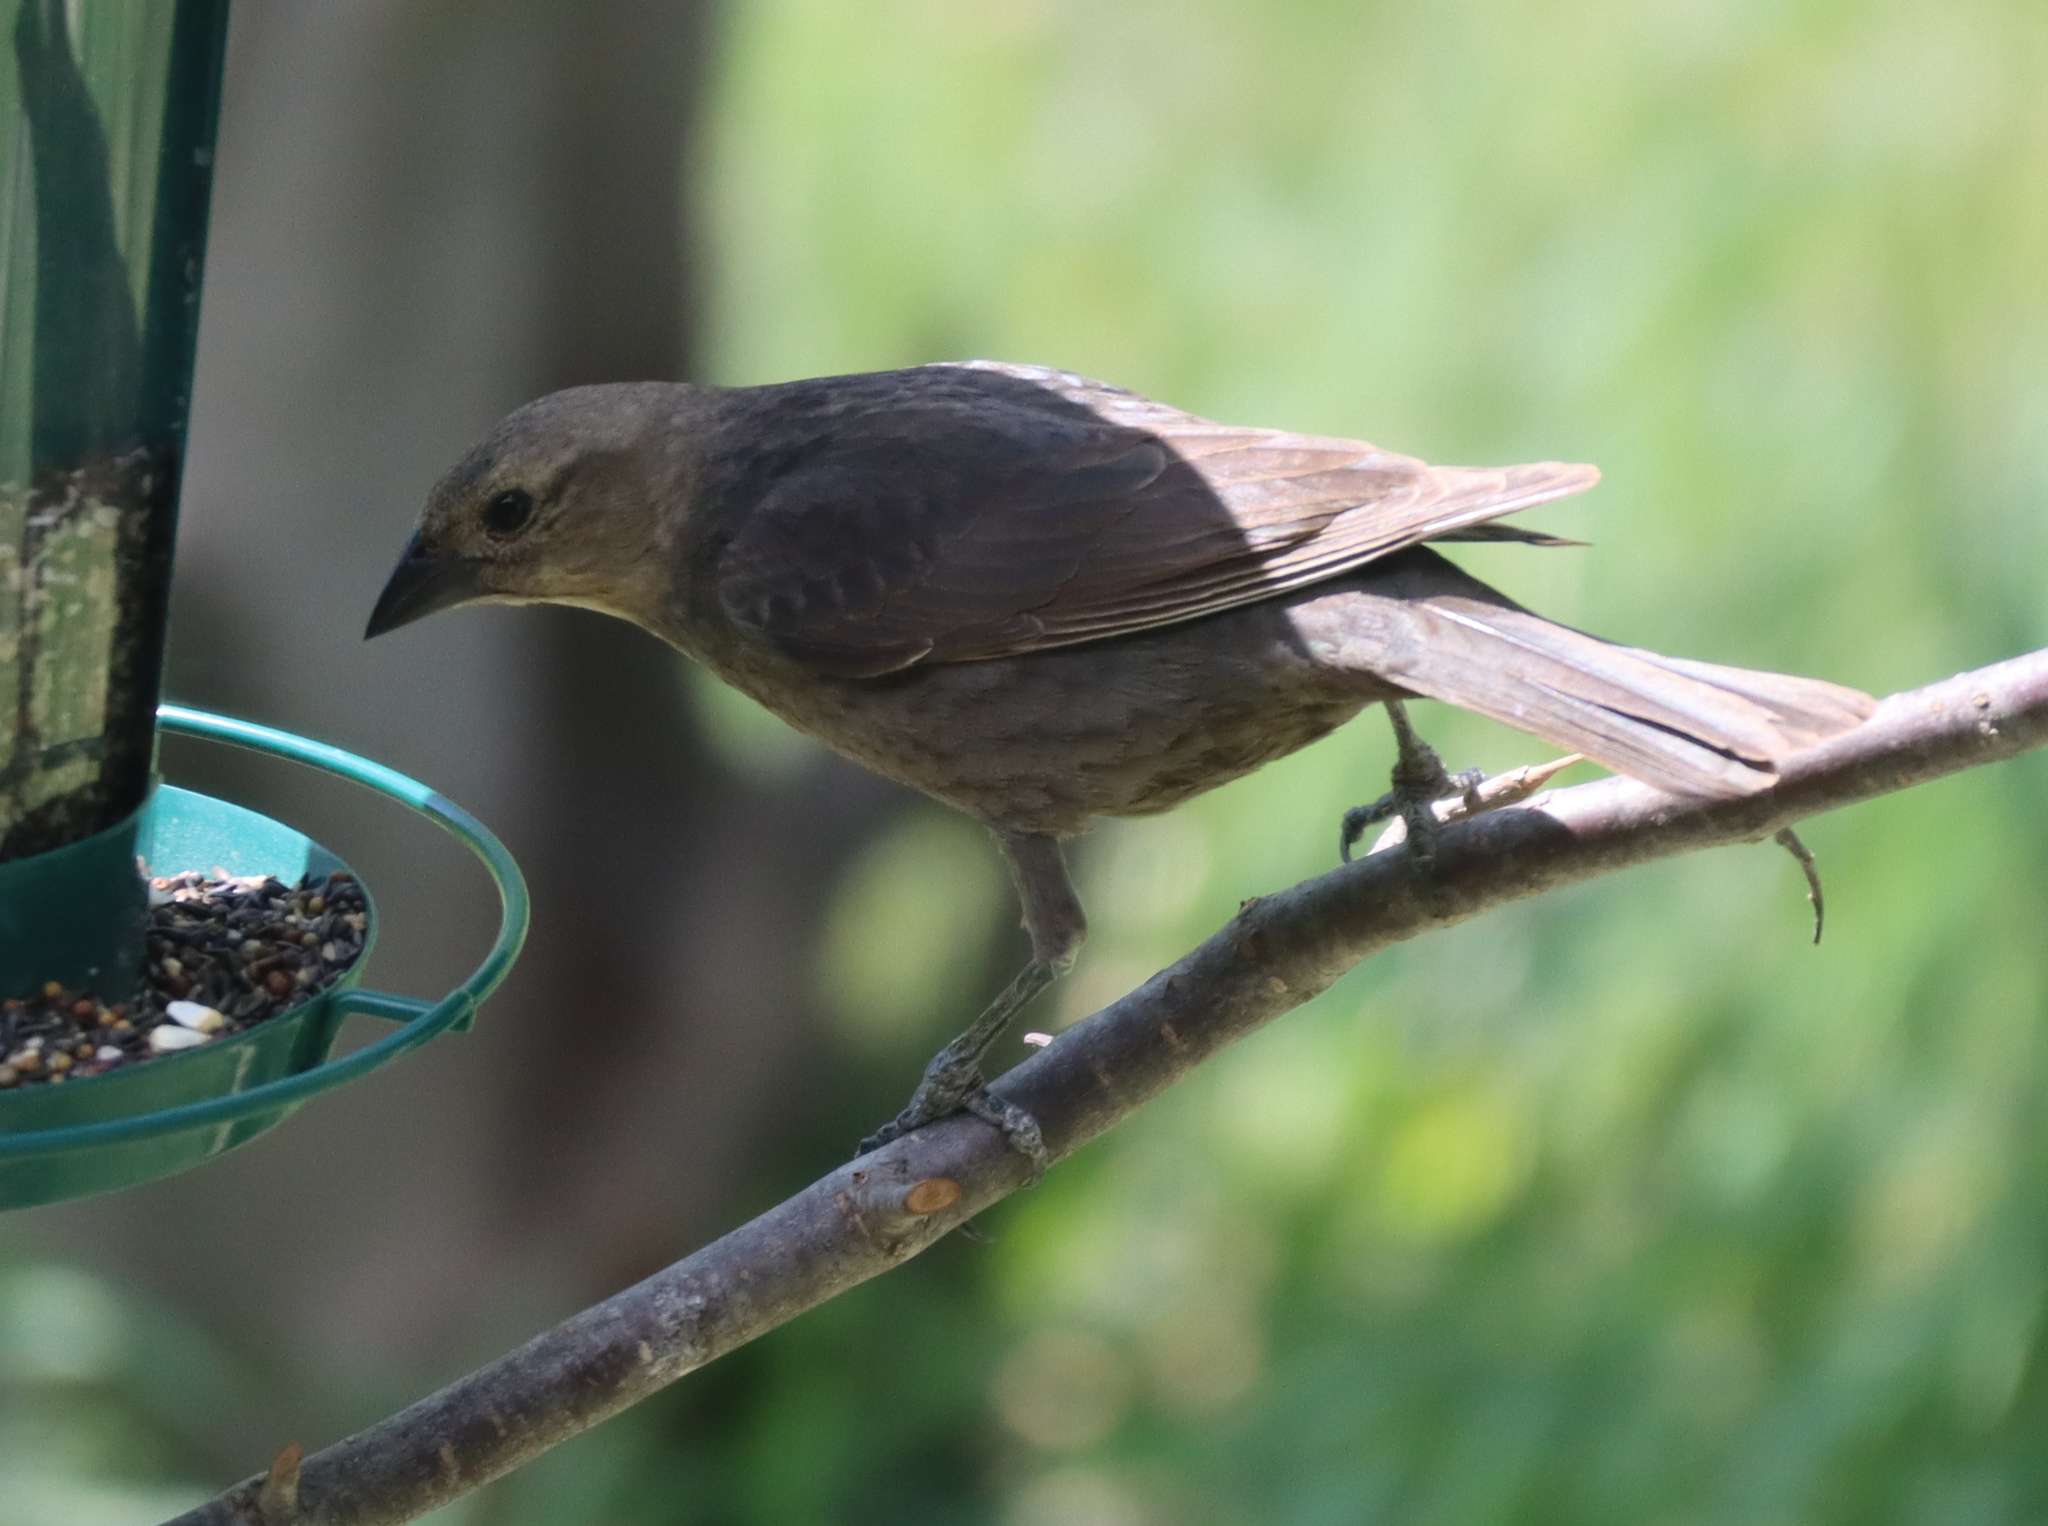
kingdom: Animalia
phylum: Chordata
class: Aves
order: Passeriformes
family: Icteridae
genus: Molothrus
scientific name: Molothrus ater
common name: Brown-headed cowbird
